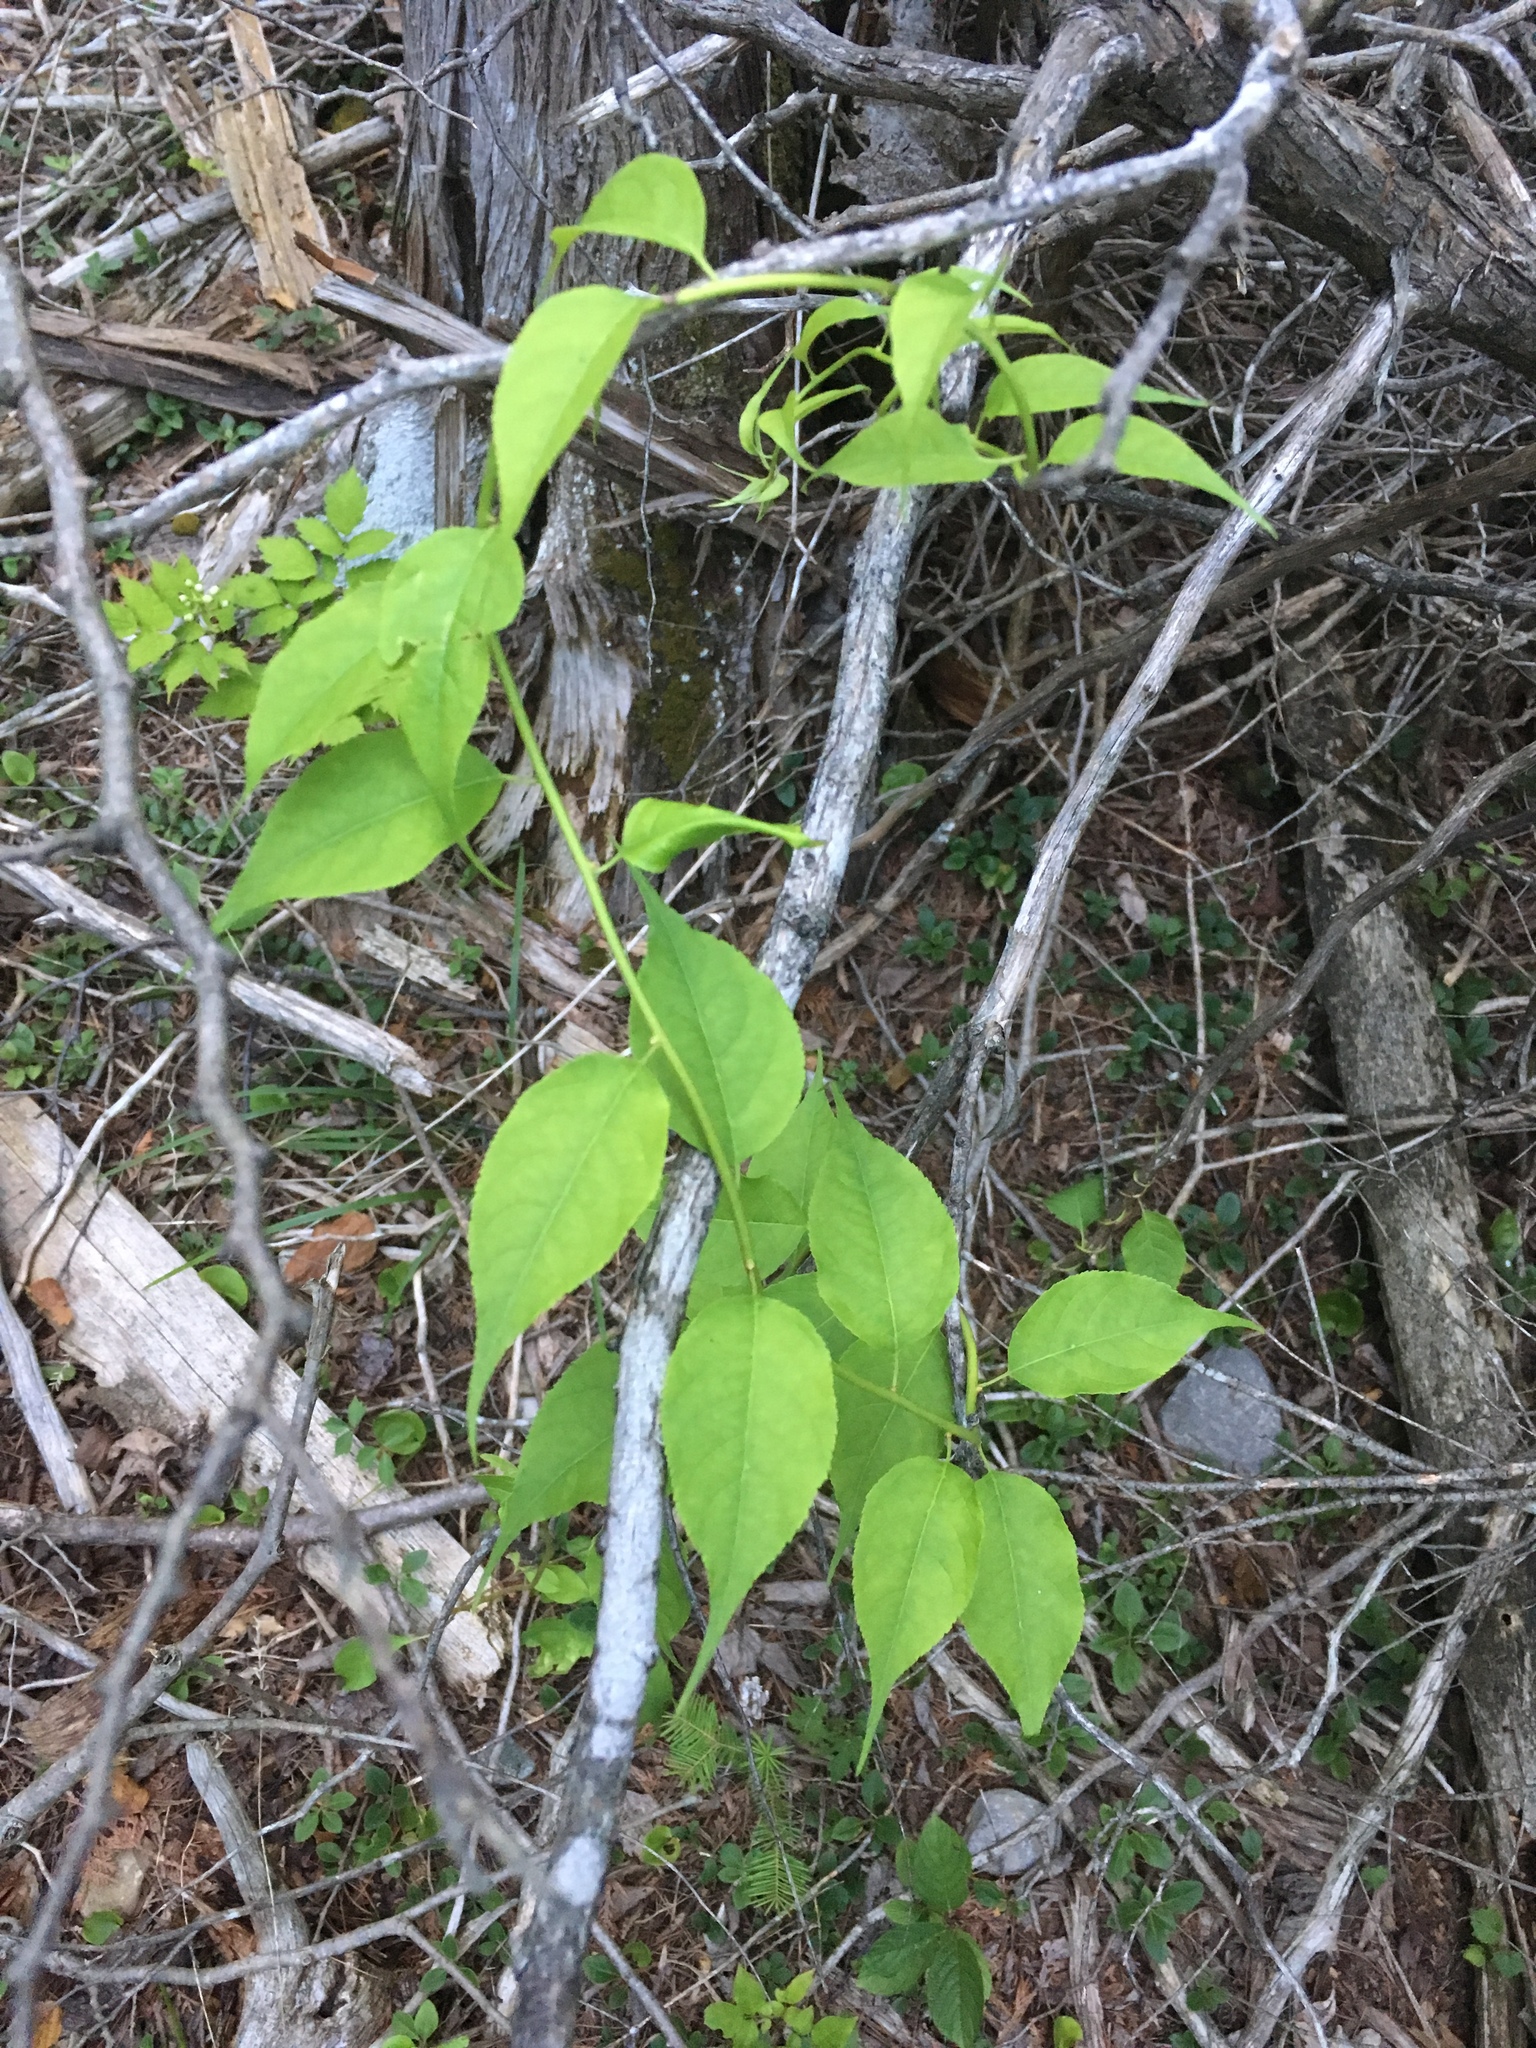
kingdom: Plantae
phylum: Tracheophyta
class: Magnoliopsida
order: Celastrales
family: Celastraceae
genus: Celastrus
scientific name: Celastrus scandens
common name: American bittersweet
